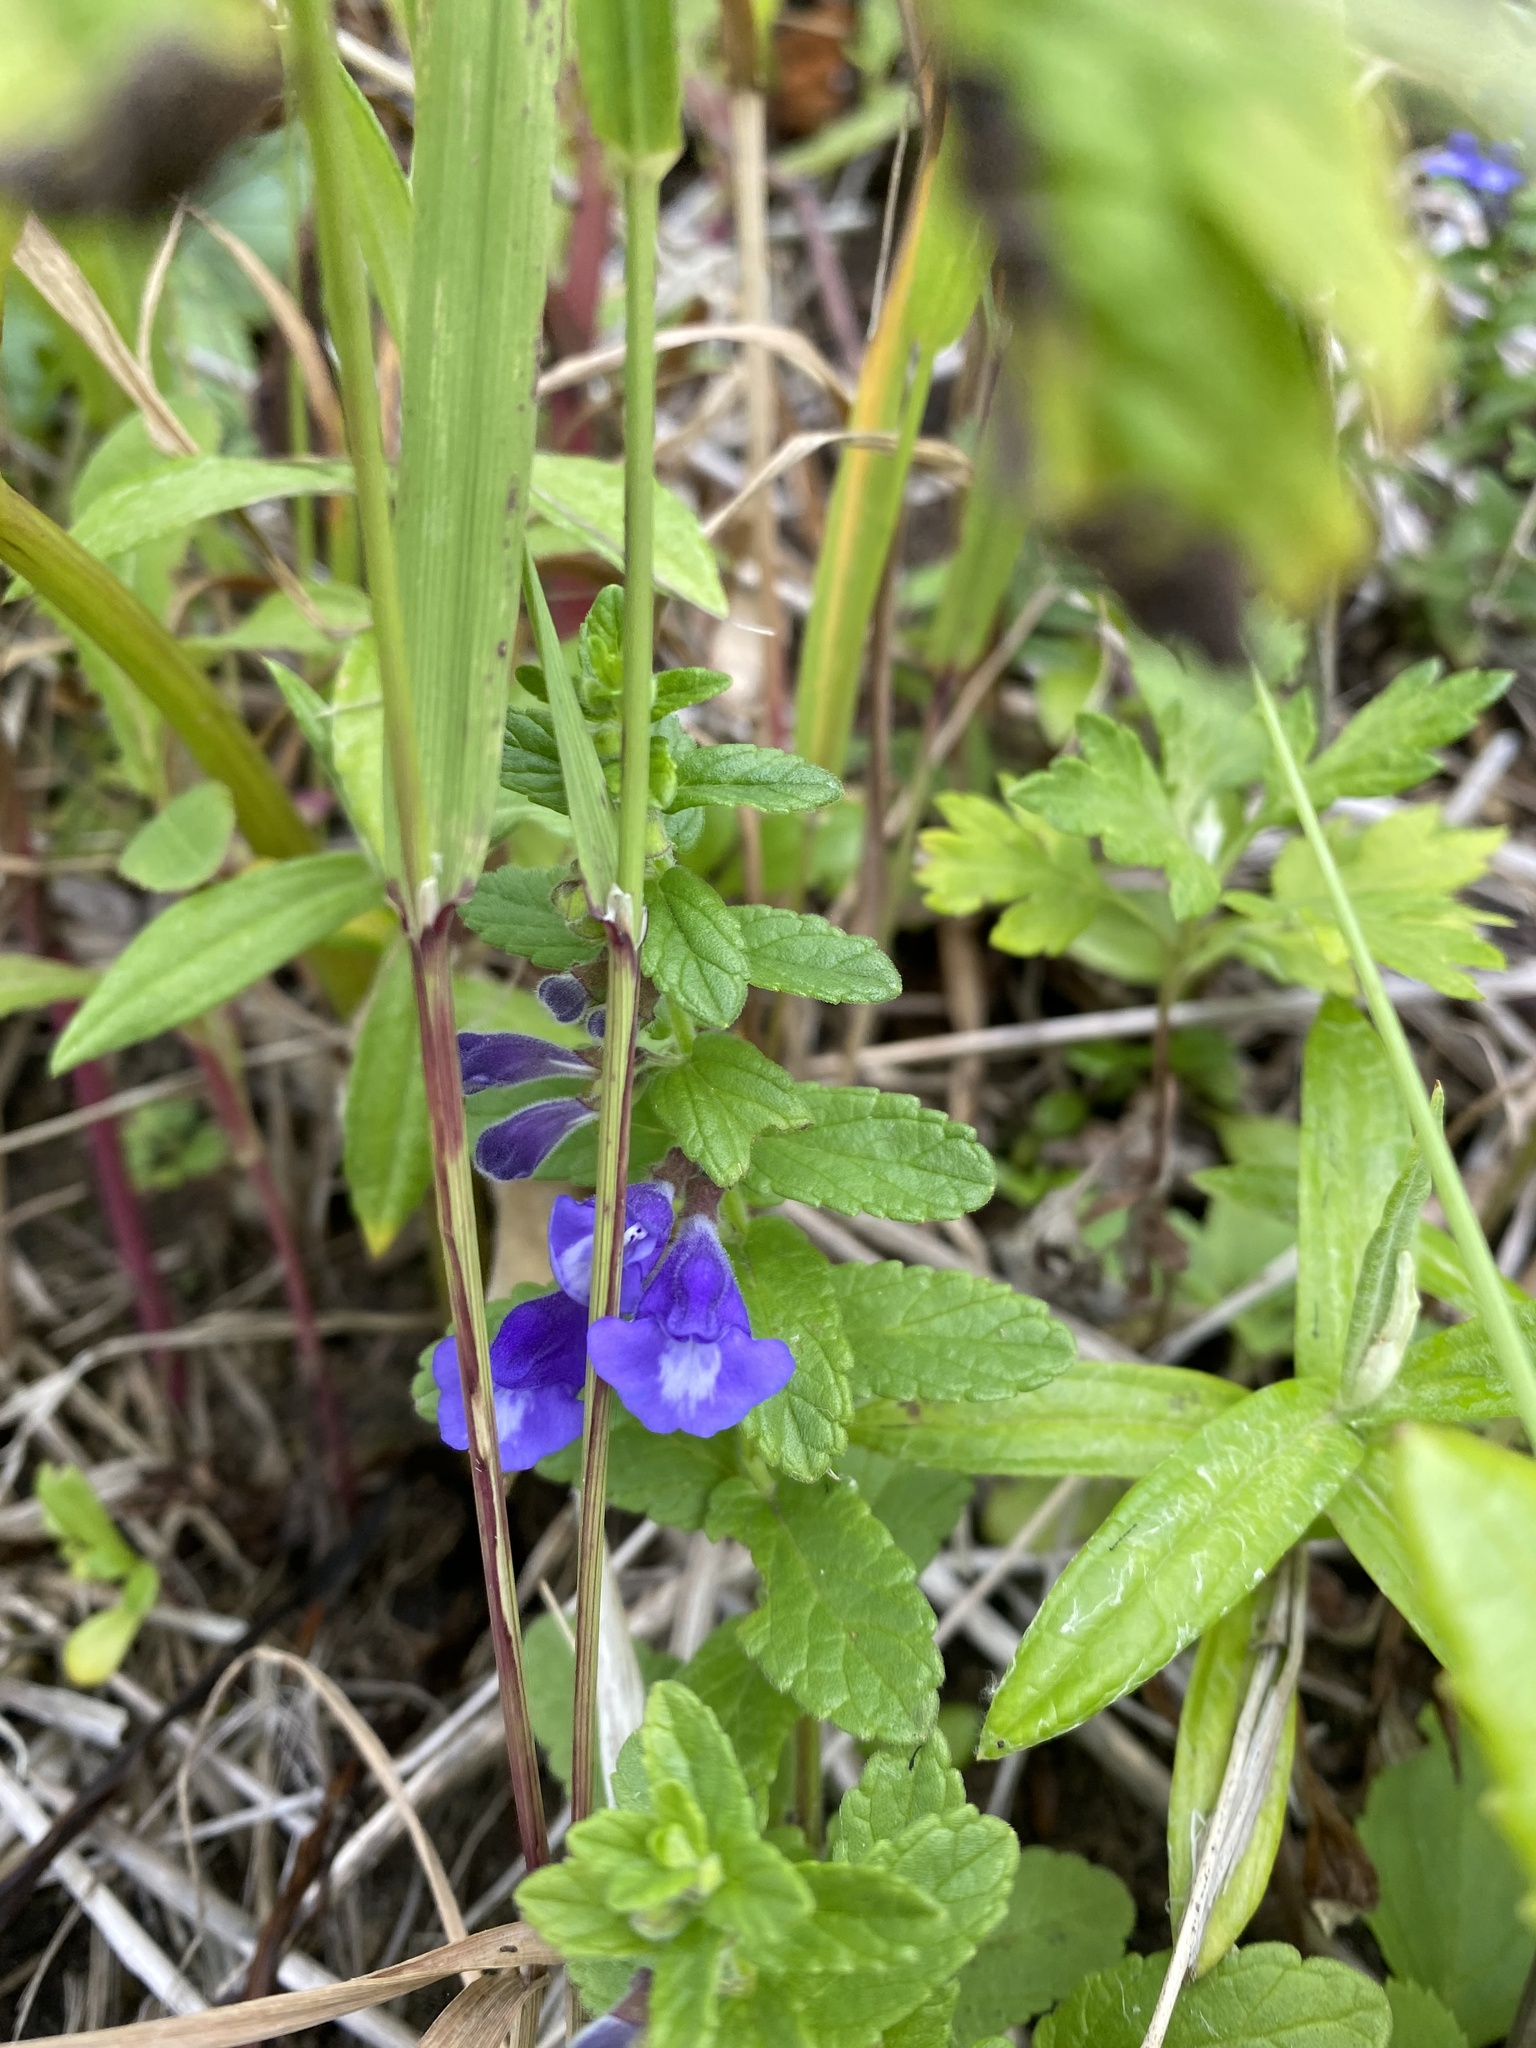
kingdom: Plantae
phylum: Tracheophyta
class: Magnoliopsida
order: Lamiales
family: Lamiaceae
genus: Scutellaria
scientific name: Scutellaria strigillosa
